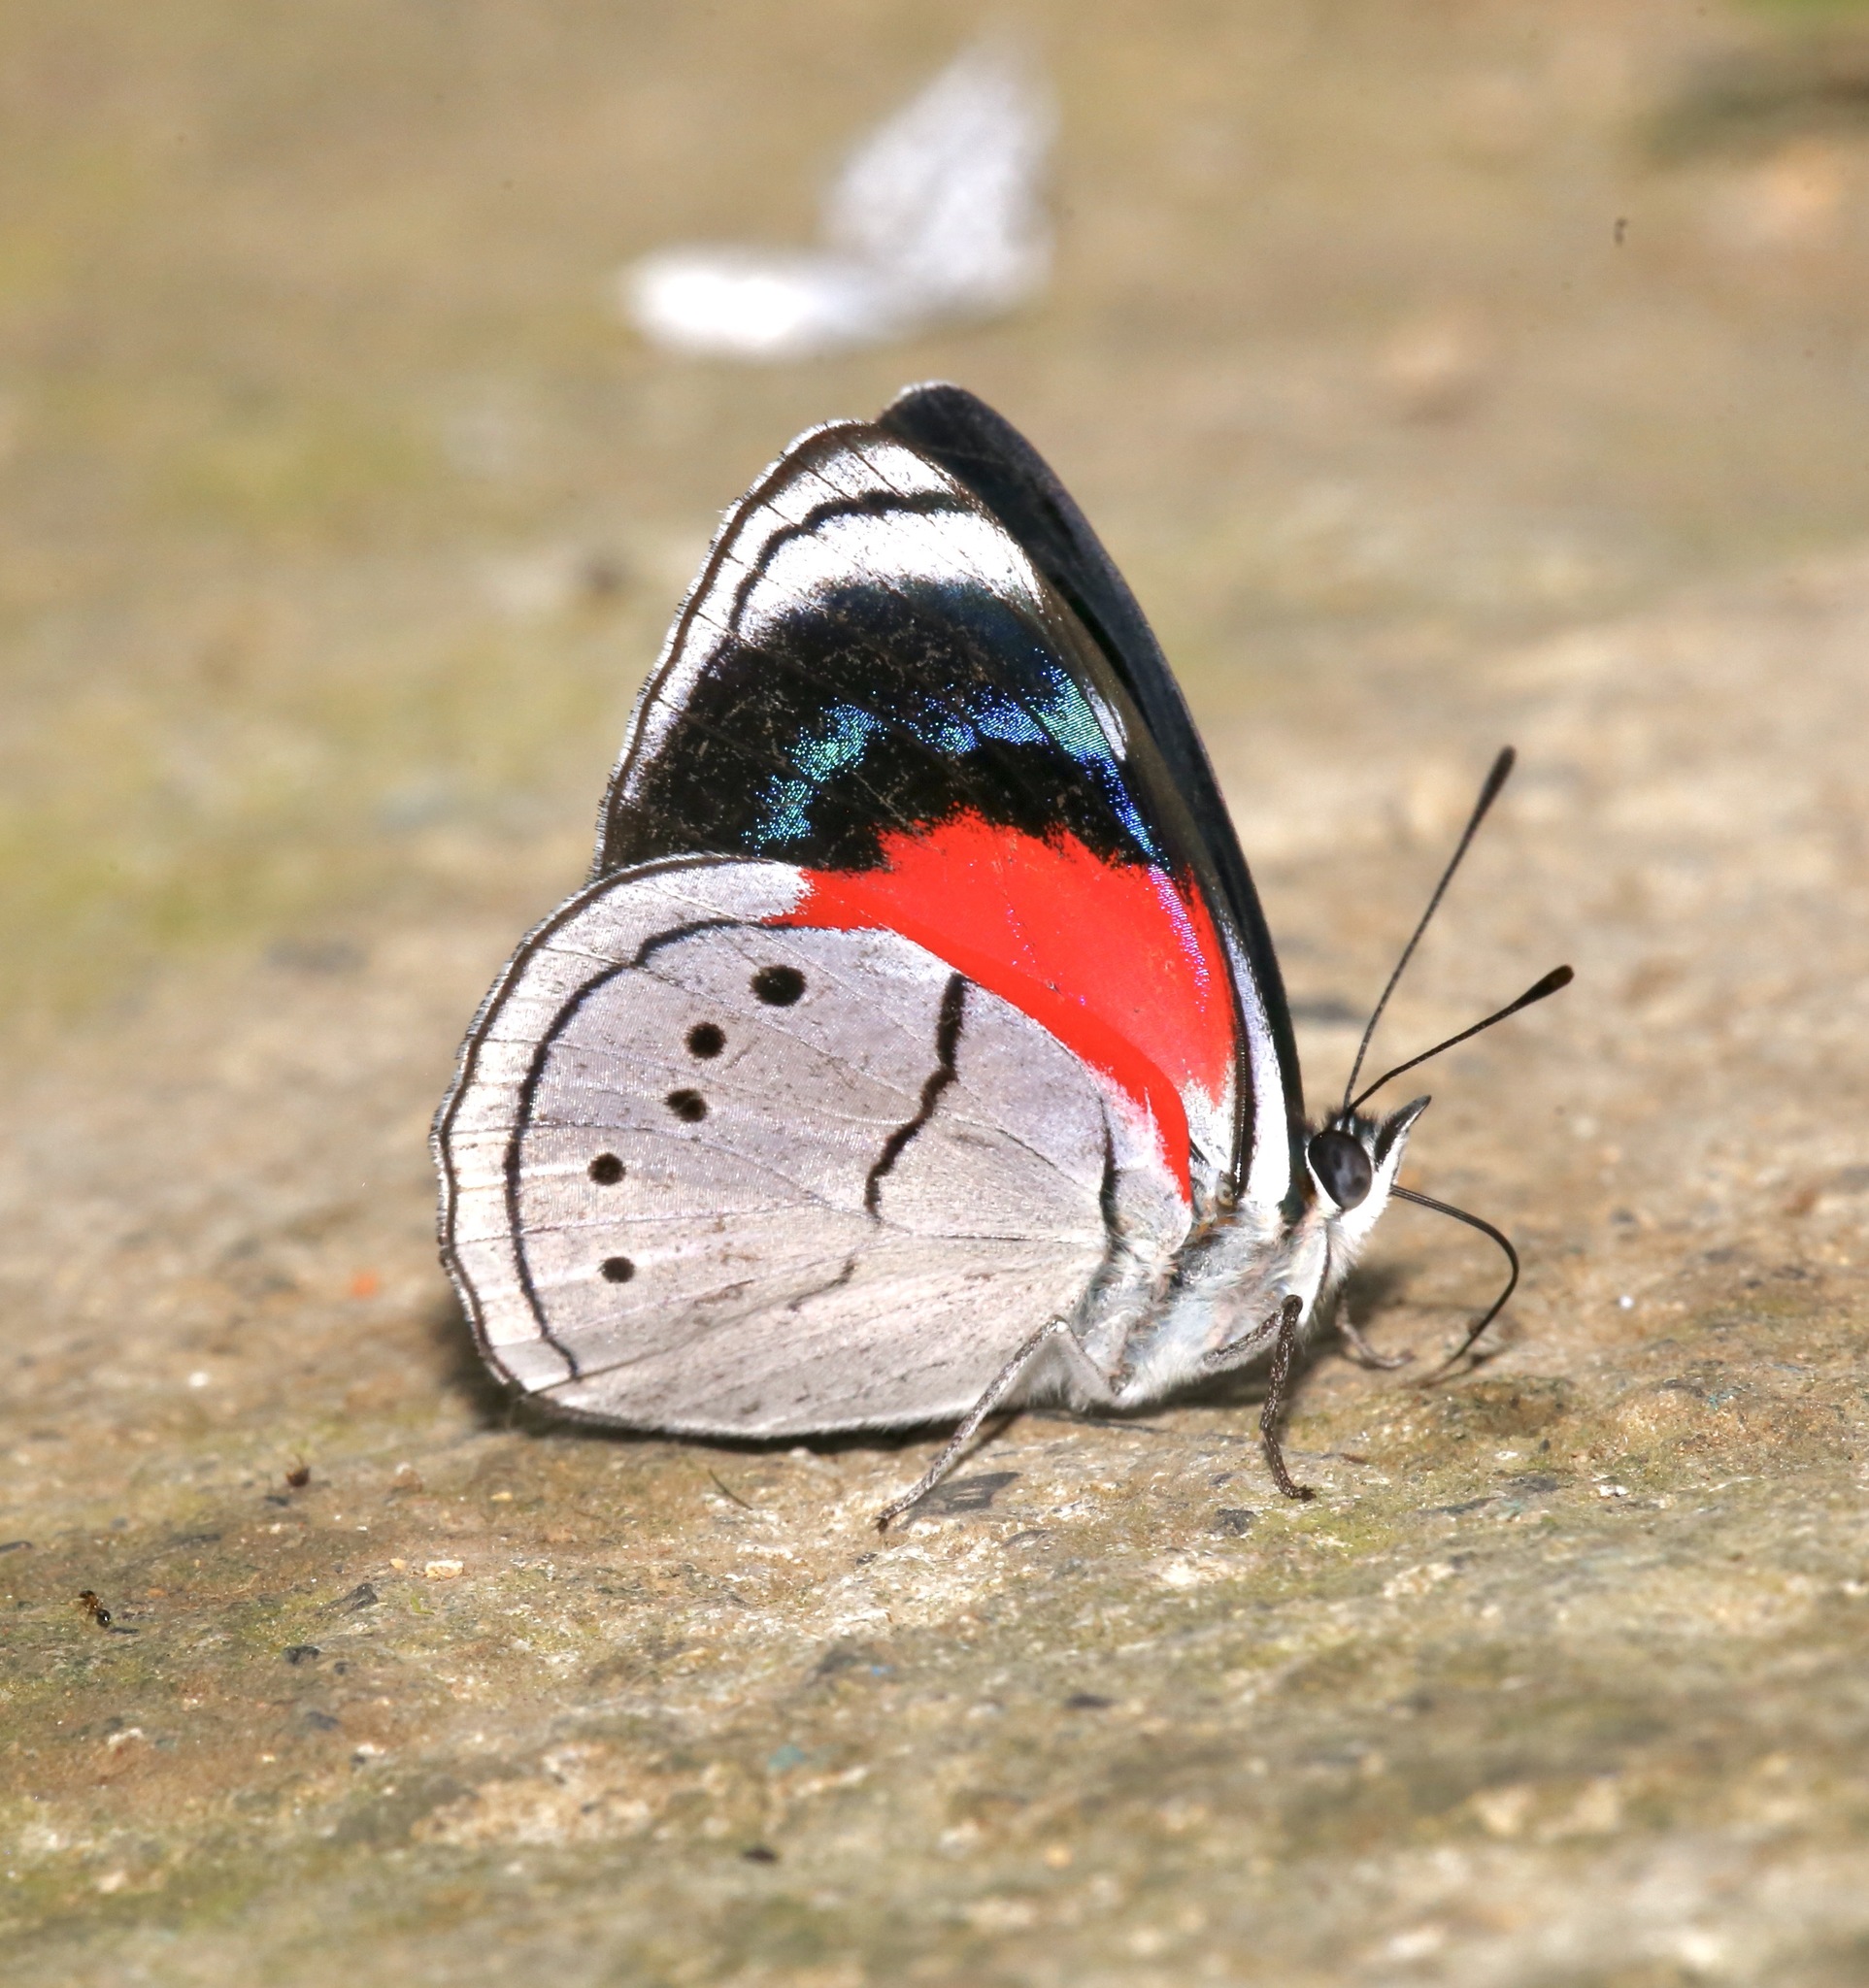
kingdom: Animalia
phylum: Arthropoda
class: Insecta
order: Lepidoptera
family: Nymphalidae
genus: Perisama
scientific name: Perisama Mesotaenia vaninka
